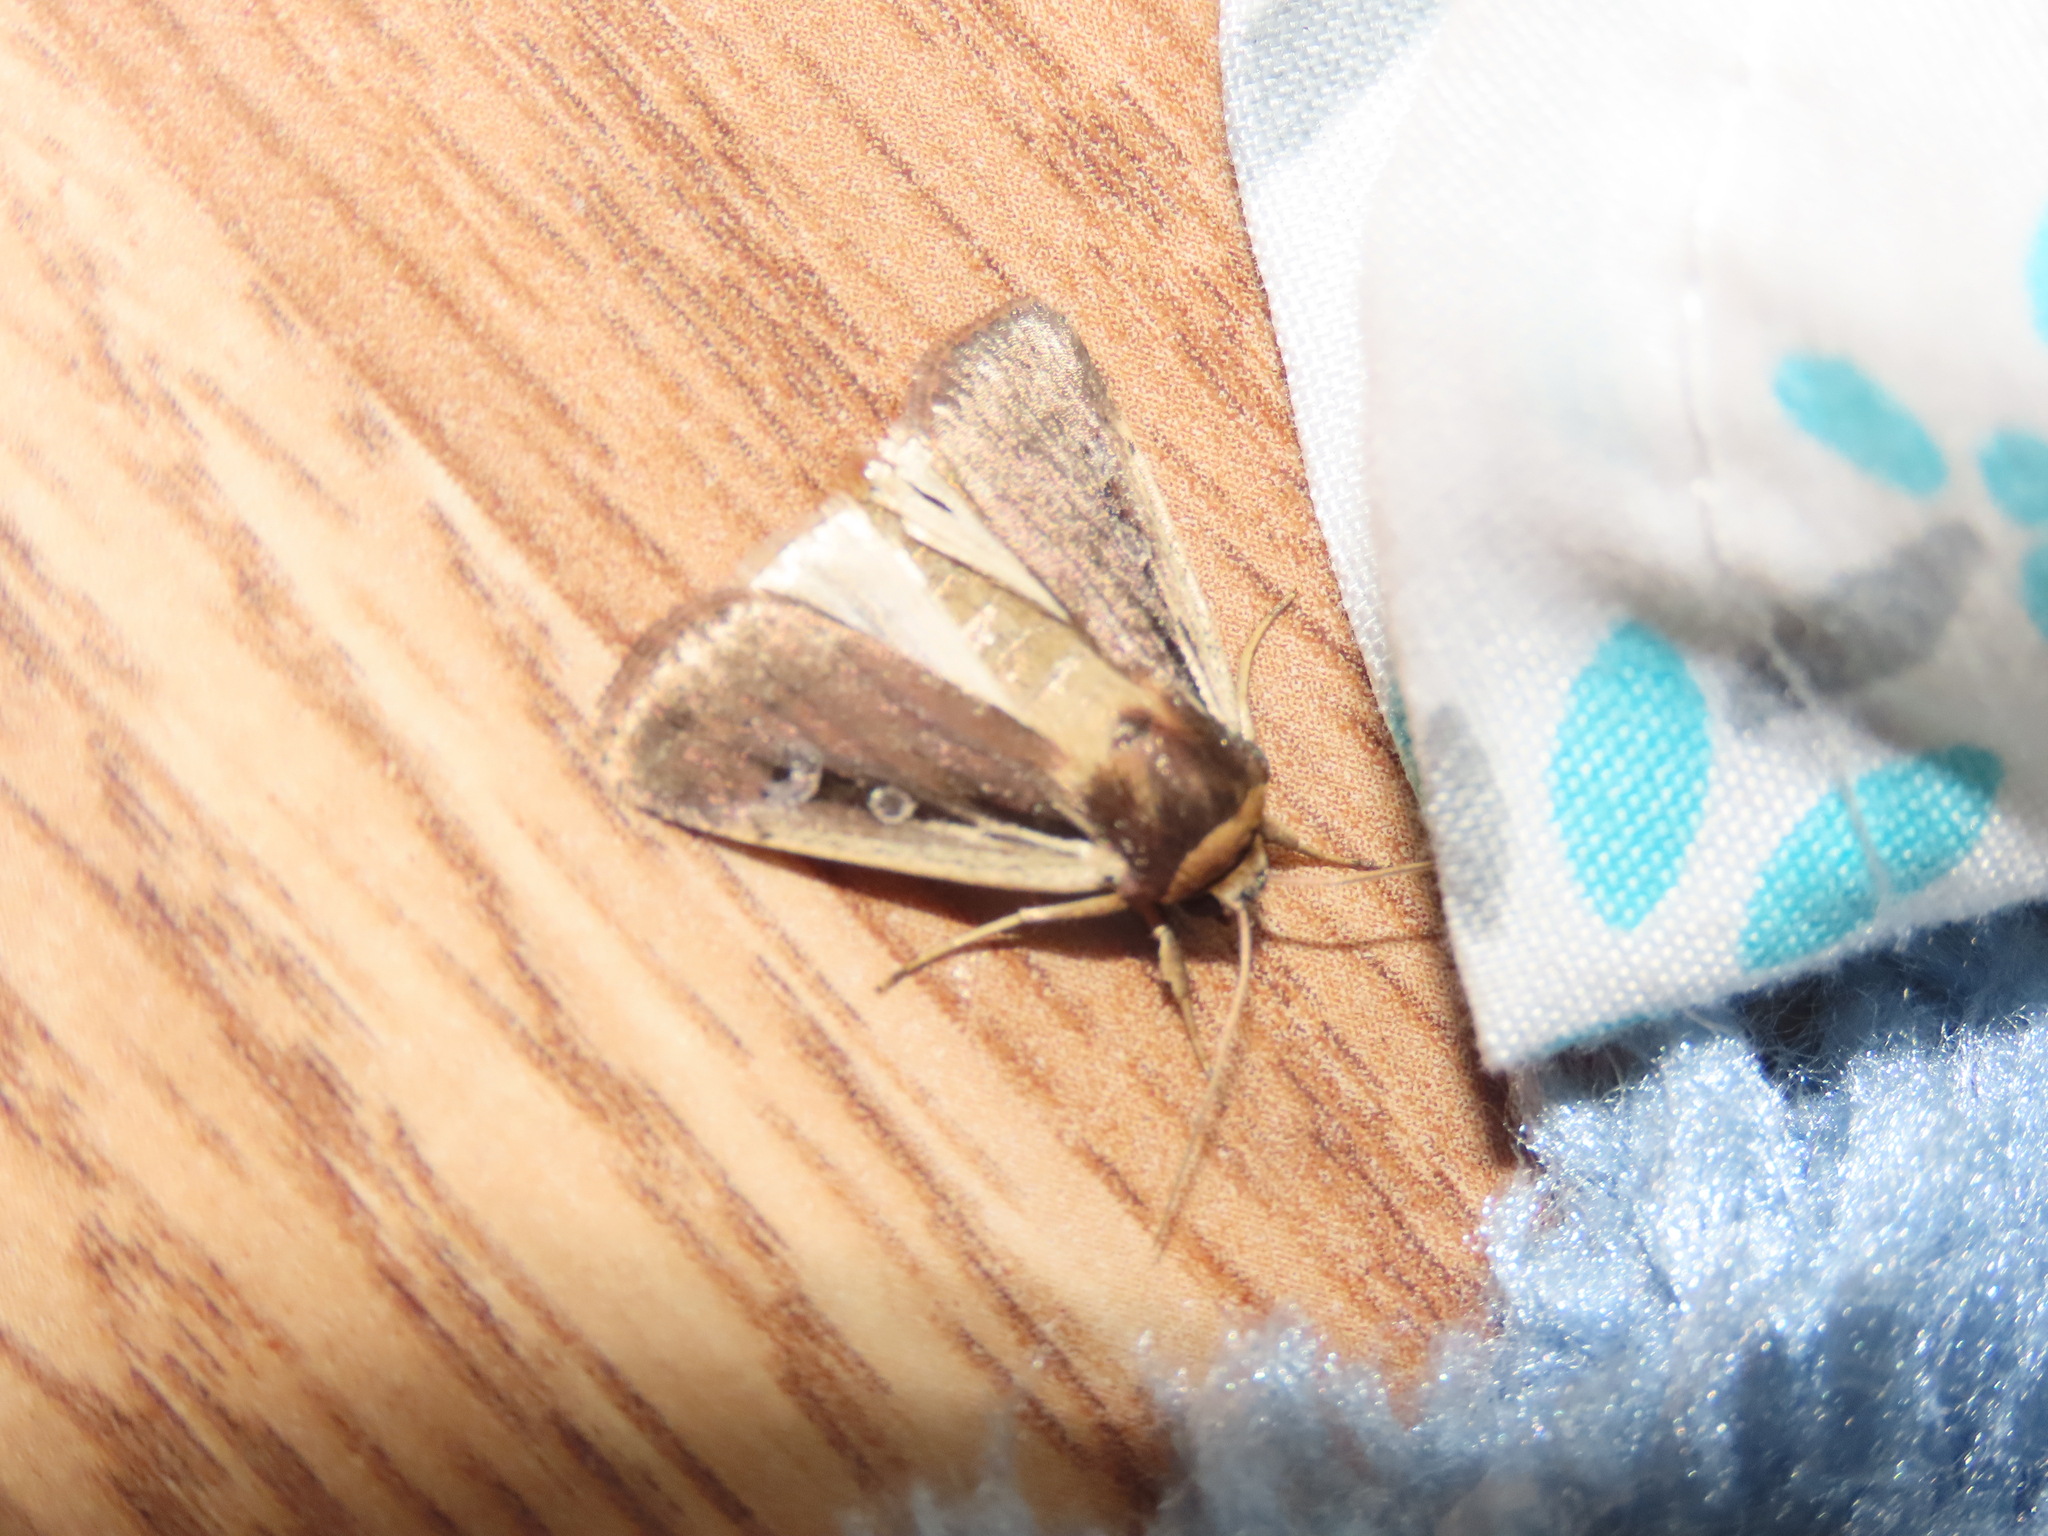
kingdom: Animalia
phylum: Arthropoda
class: Insecta
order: Lepidoptera
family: Noctuidae
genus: Ochropleura
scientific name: Ochropleura implecta
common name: Flame-shouldered dart
